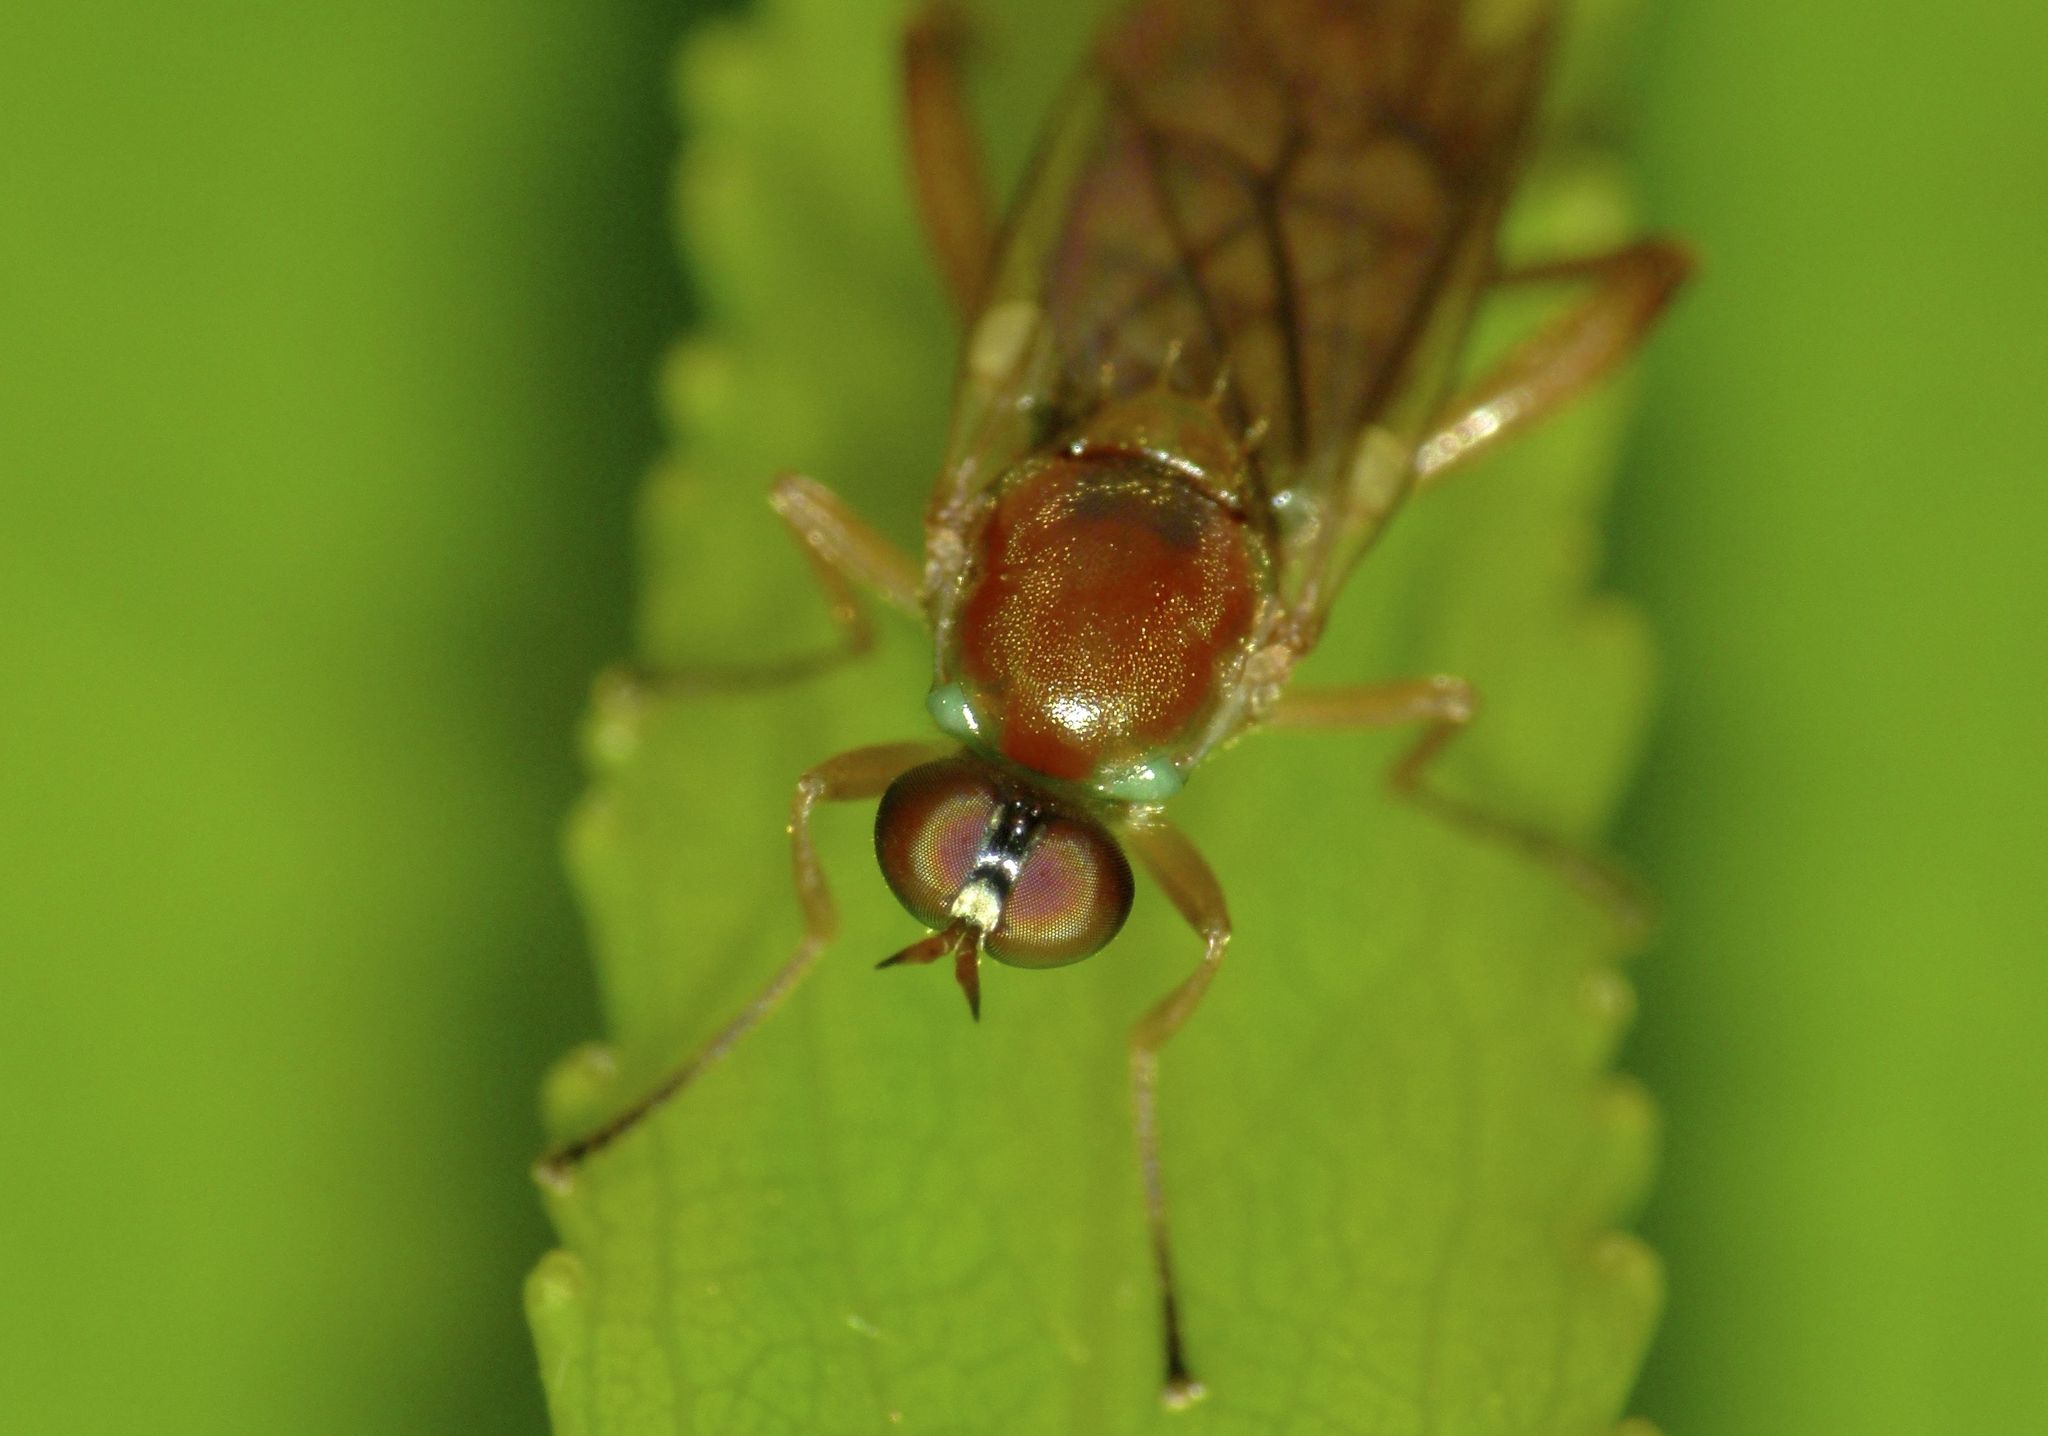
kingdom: Animalia
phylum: Arthropoda
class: Insecta
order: Diptera
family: Stratiomyidae
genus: Australoberis
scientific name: Australoberis refugians
